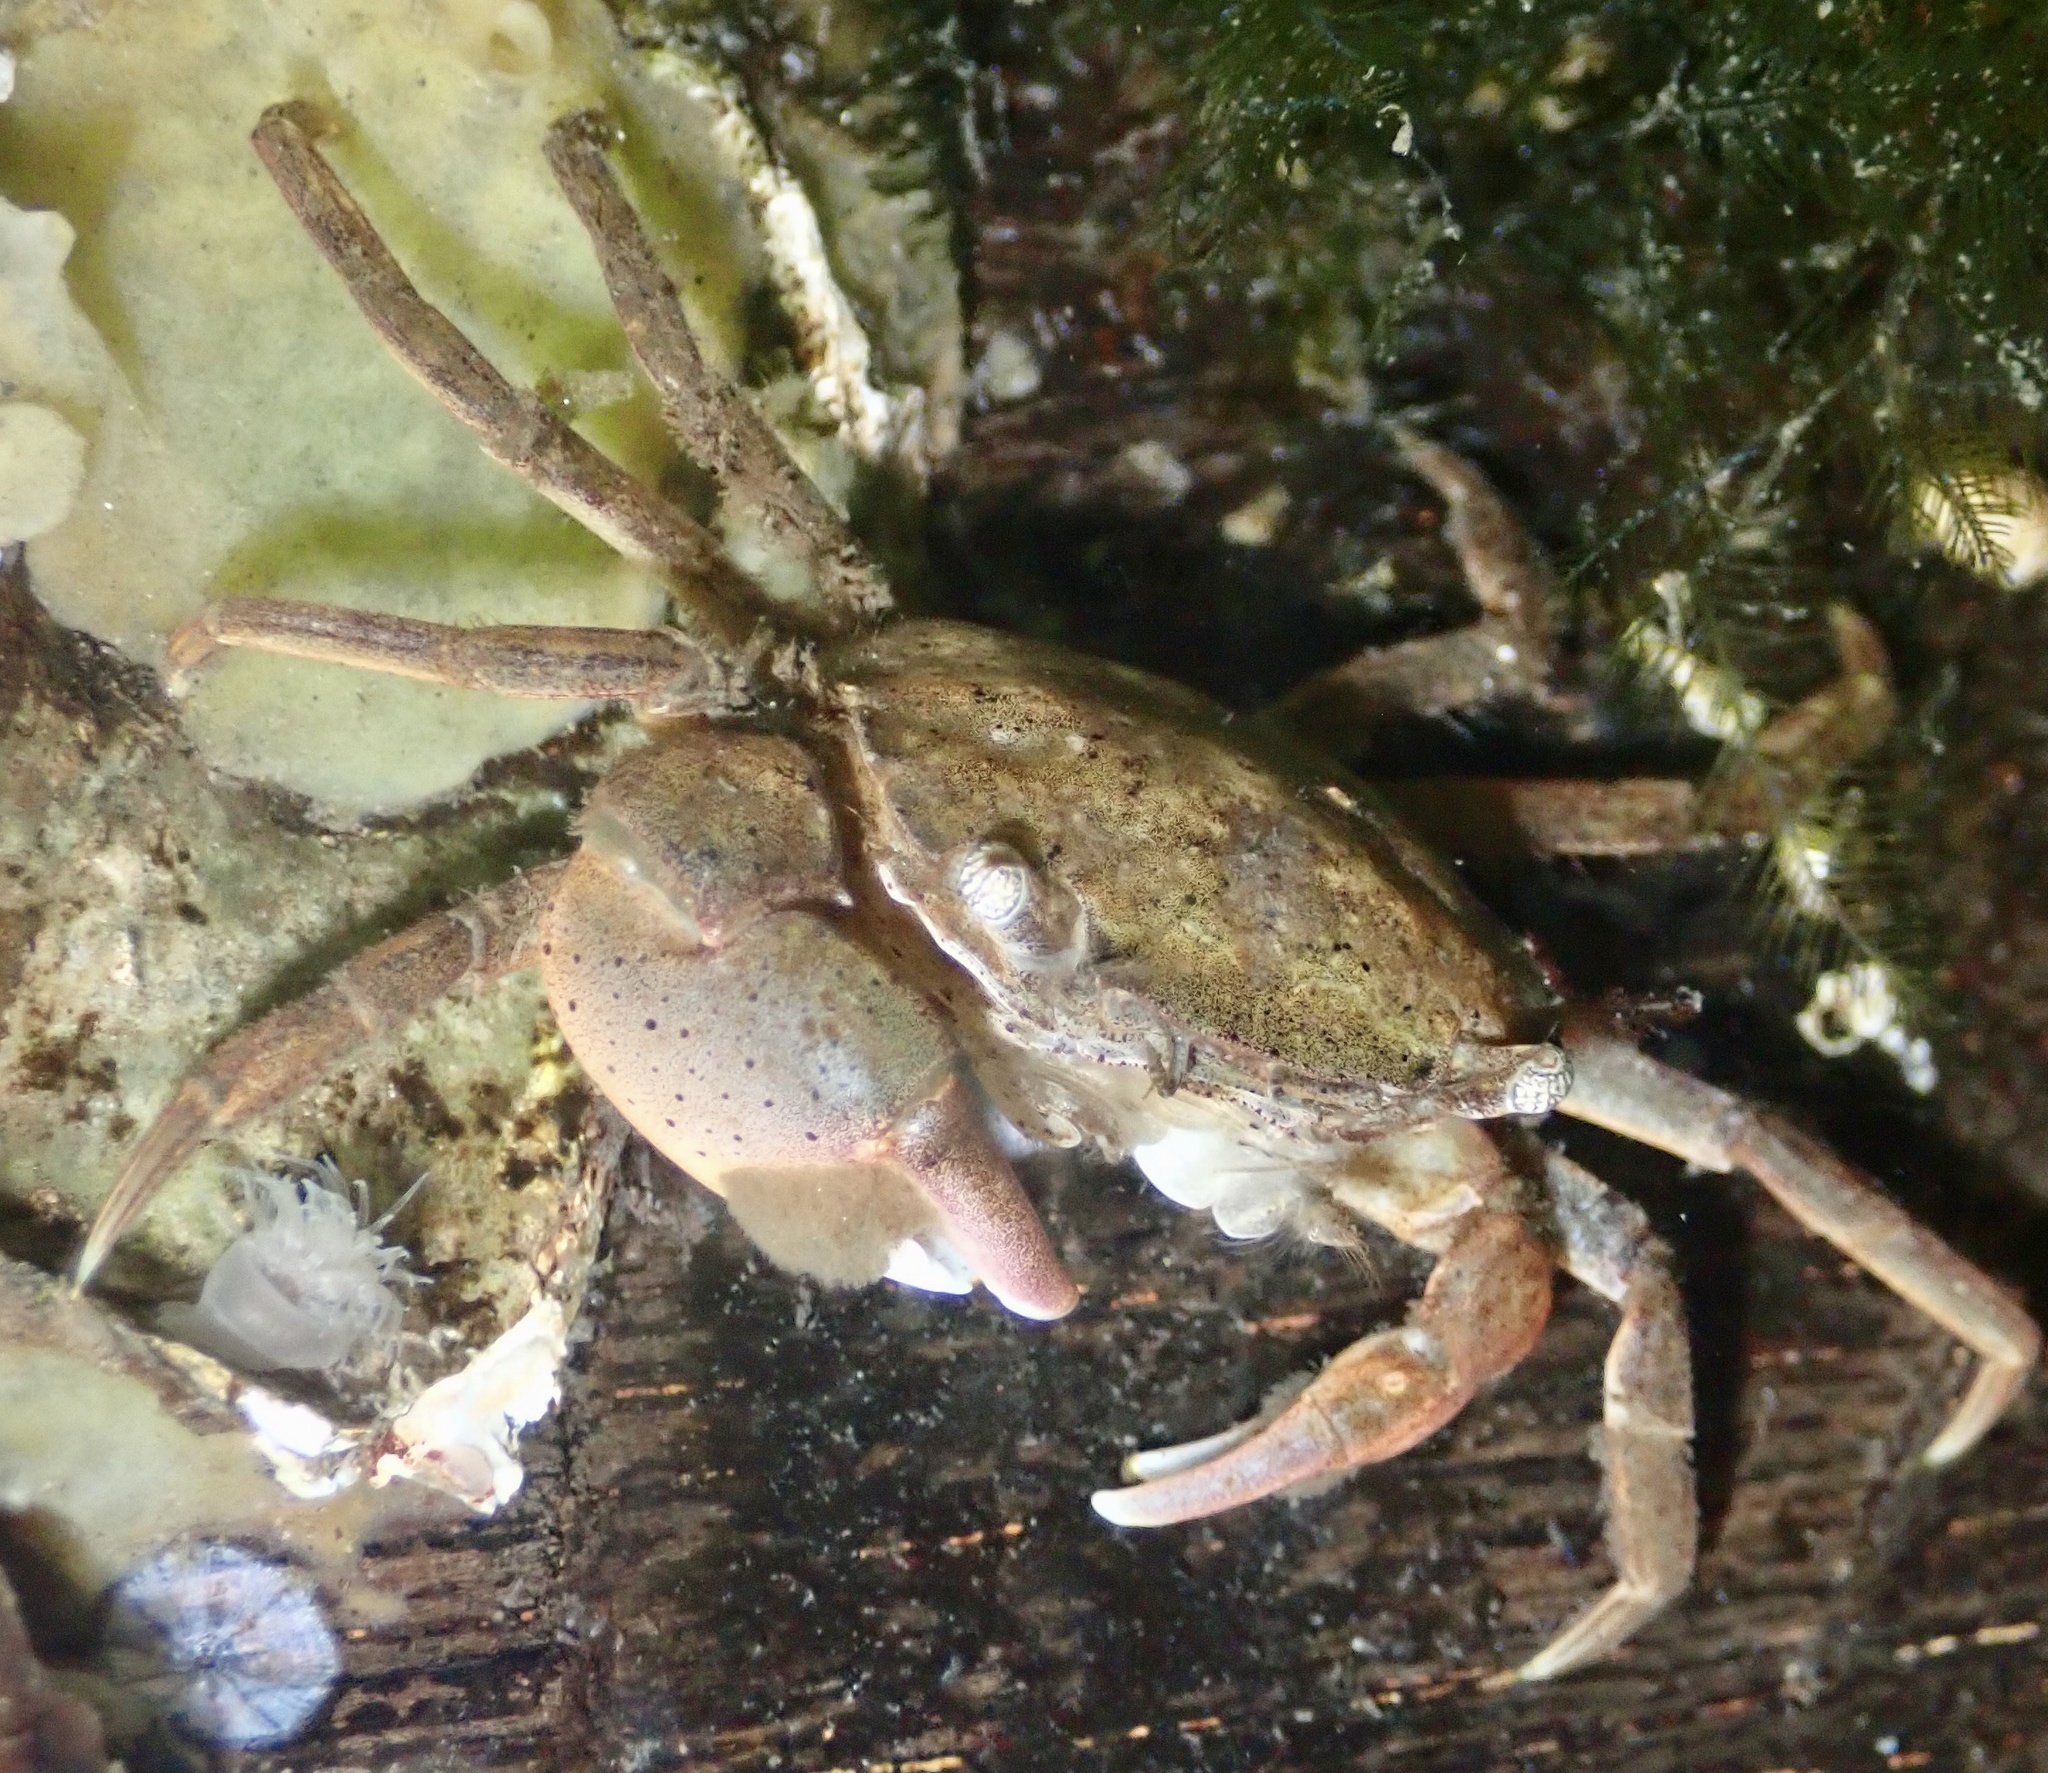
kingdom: Animalia
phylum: Arthropoda
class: Malacostraca
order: Decapoda
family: Varunidae
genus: Hemigrapsus
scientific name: Hemigrapsus takanoi
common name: Asian brush crab
